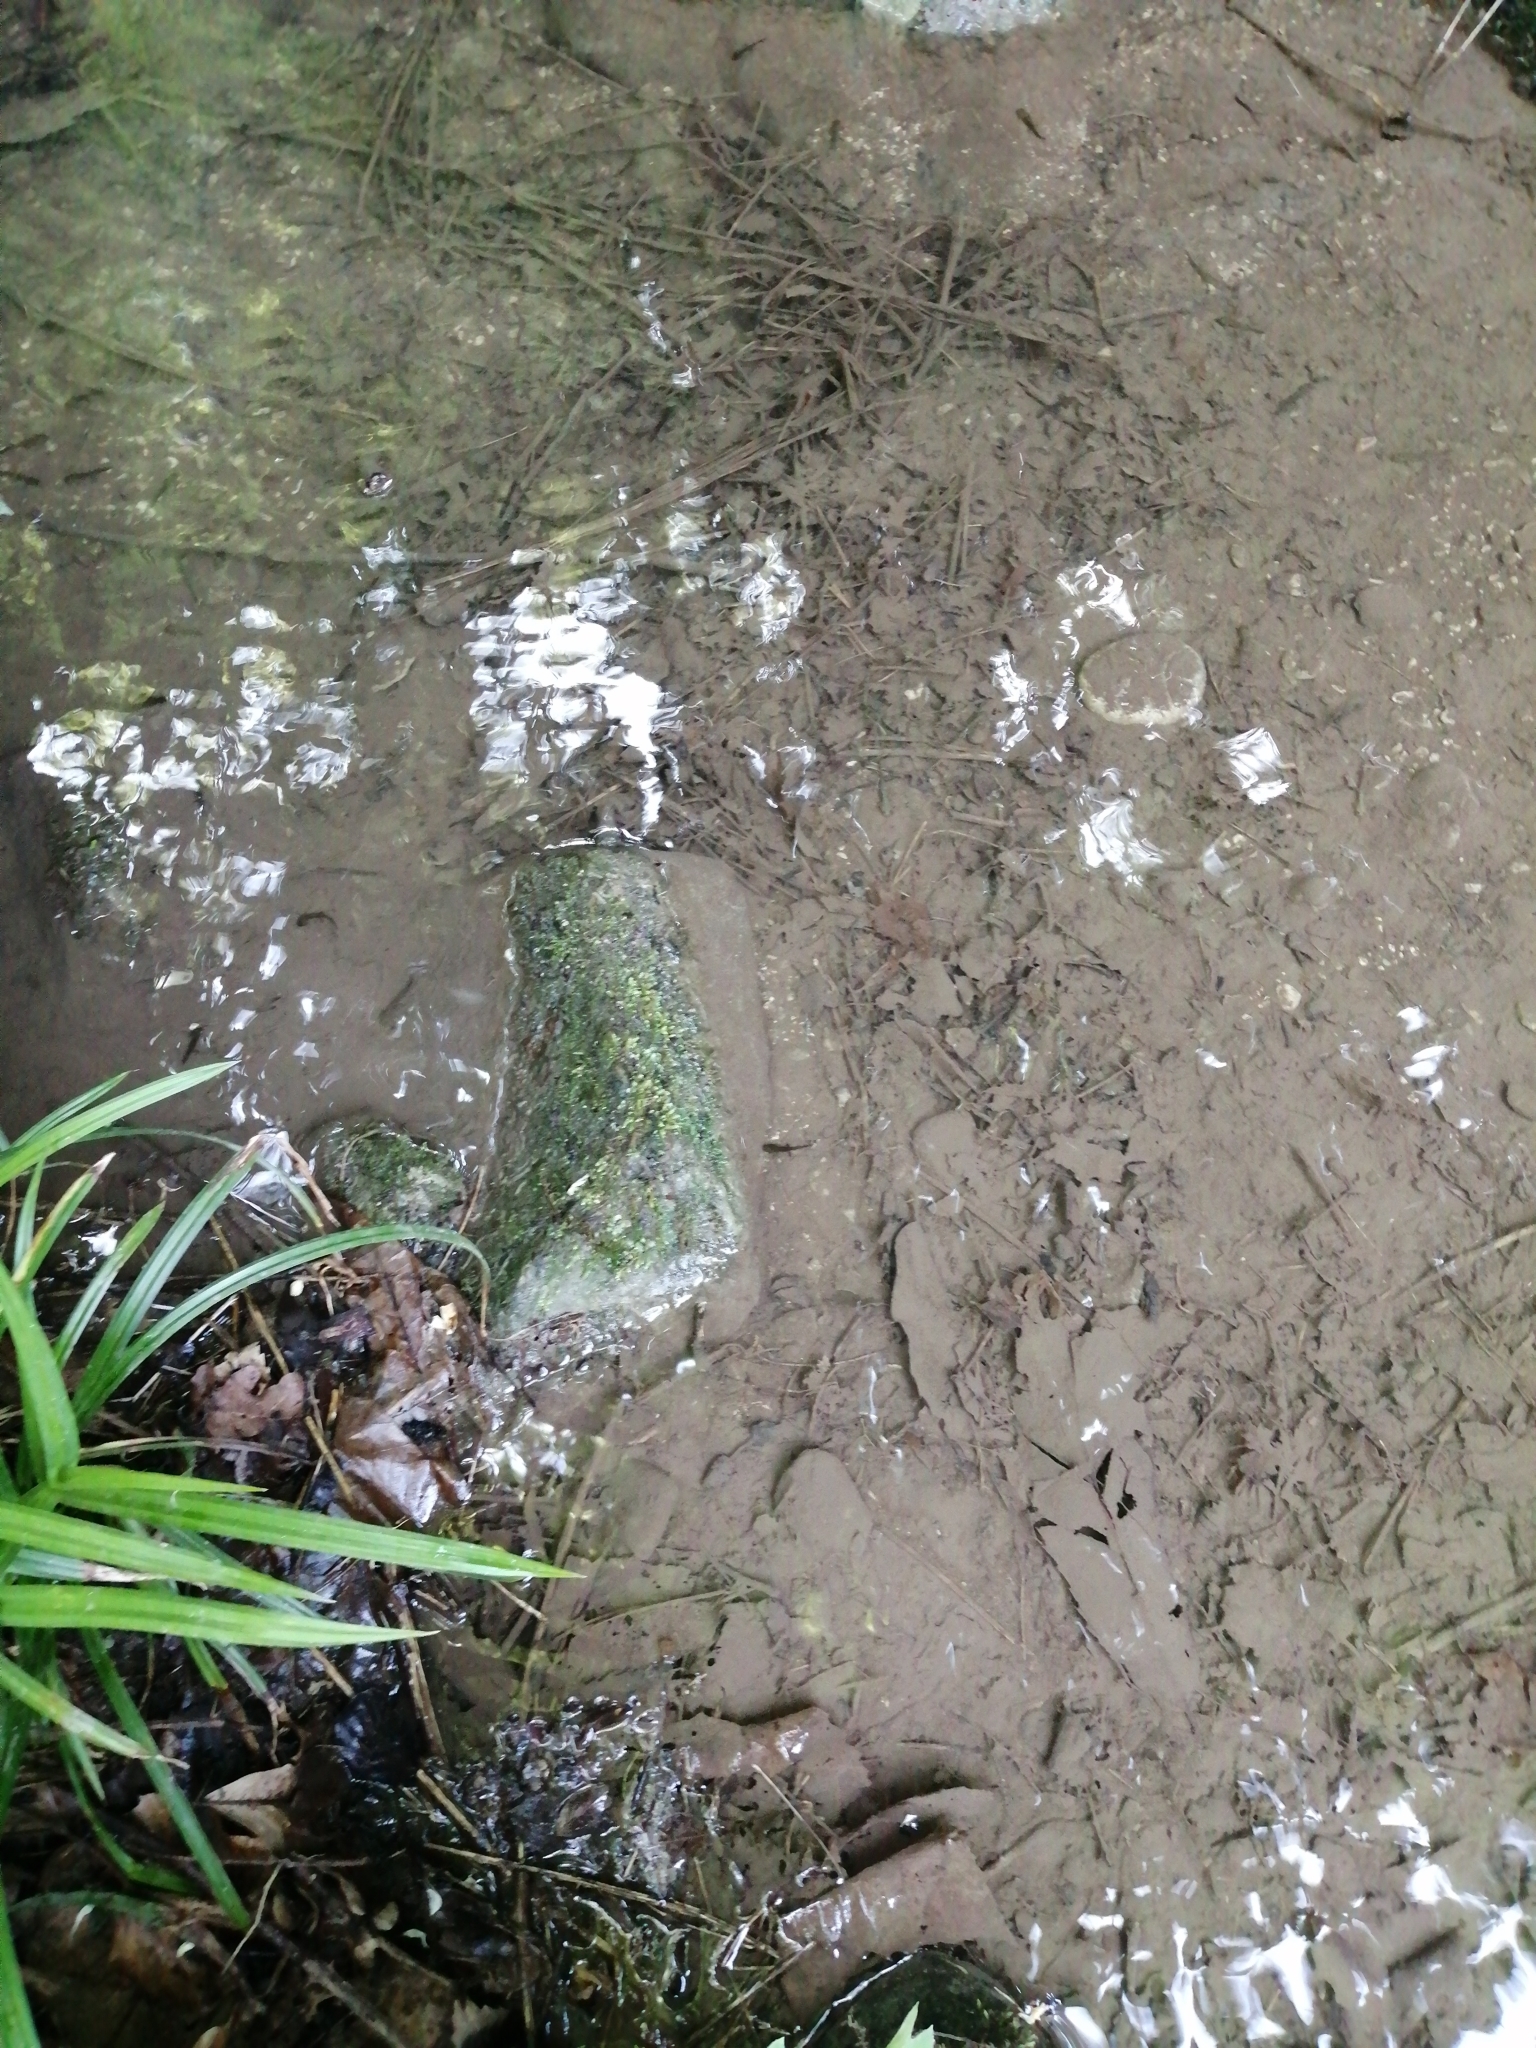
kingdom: Animalia
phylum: Chordata
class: Amphibia
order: Caudata
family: Salamandridae
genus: Salamandra
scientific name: Salamandra salamandra
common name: Fire salamander
